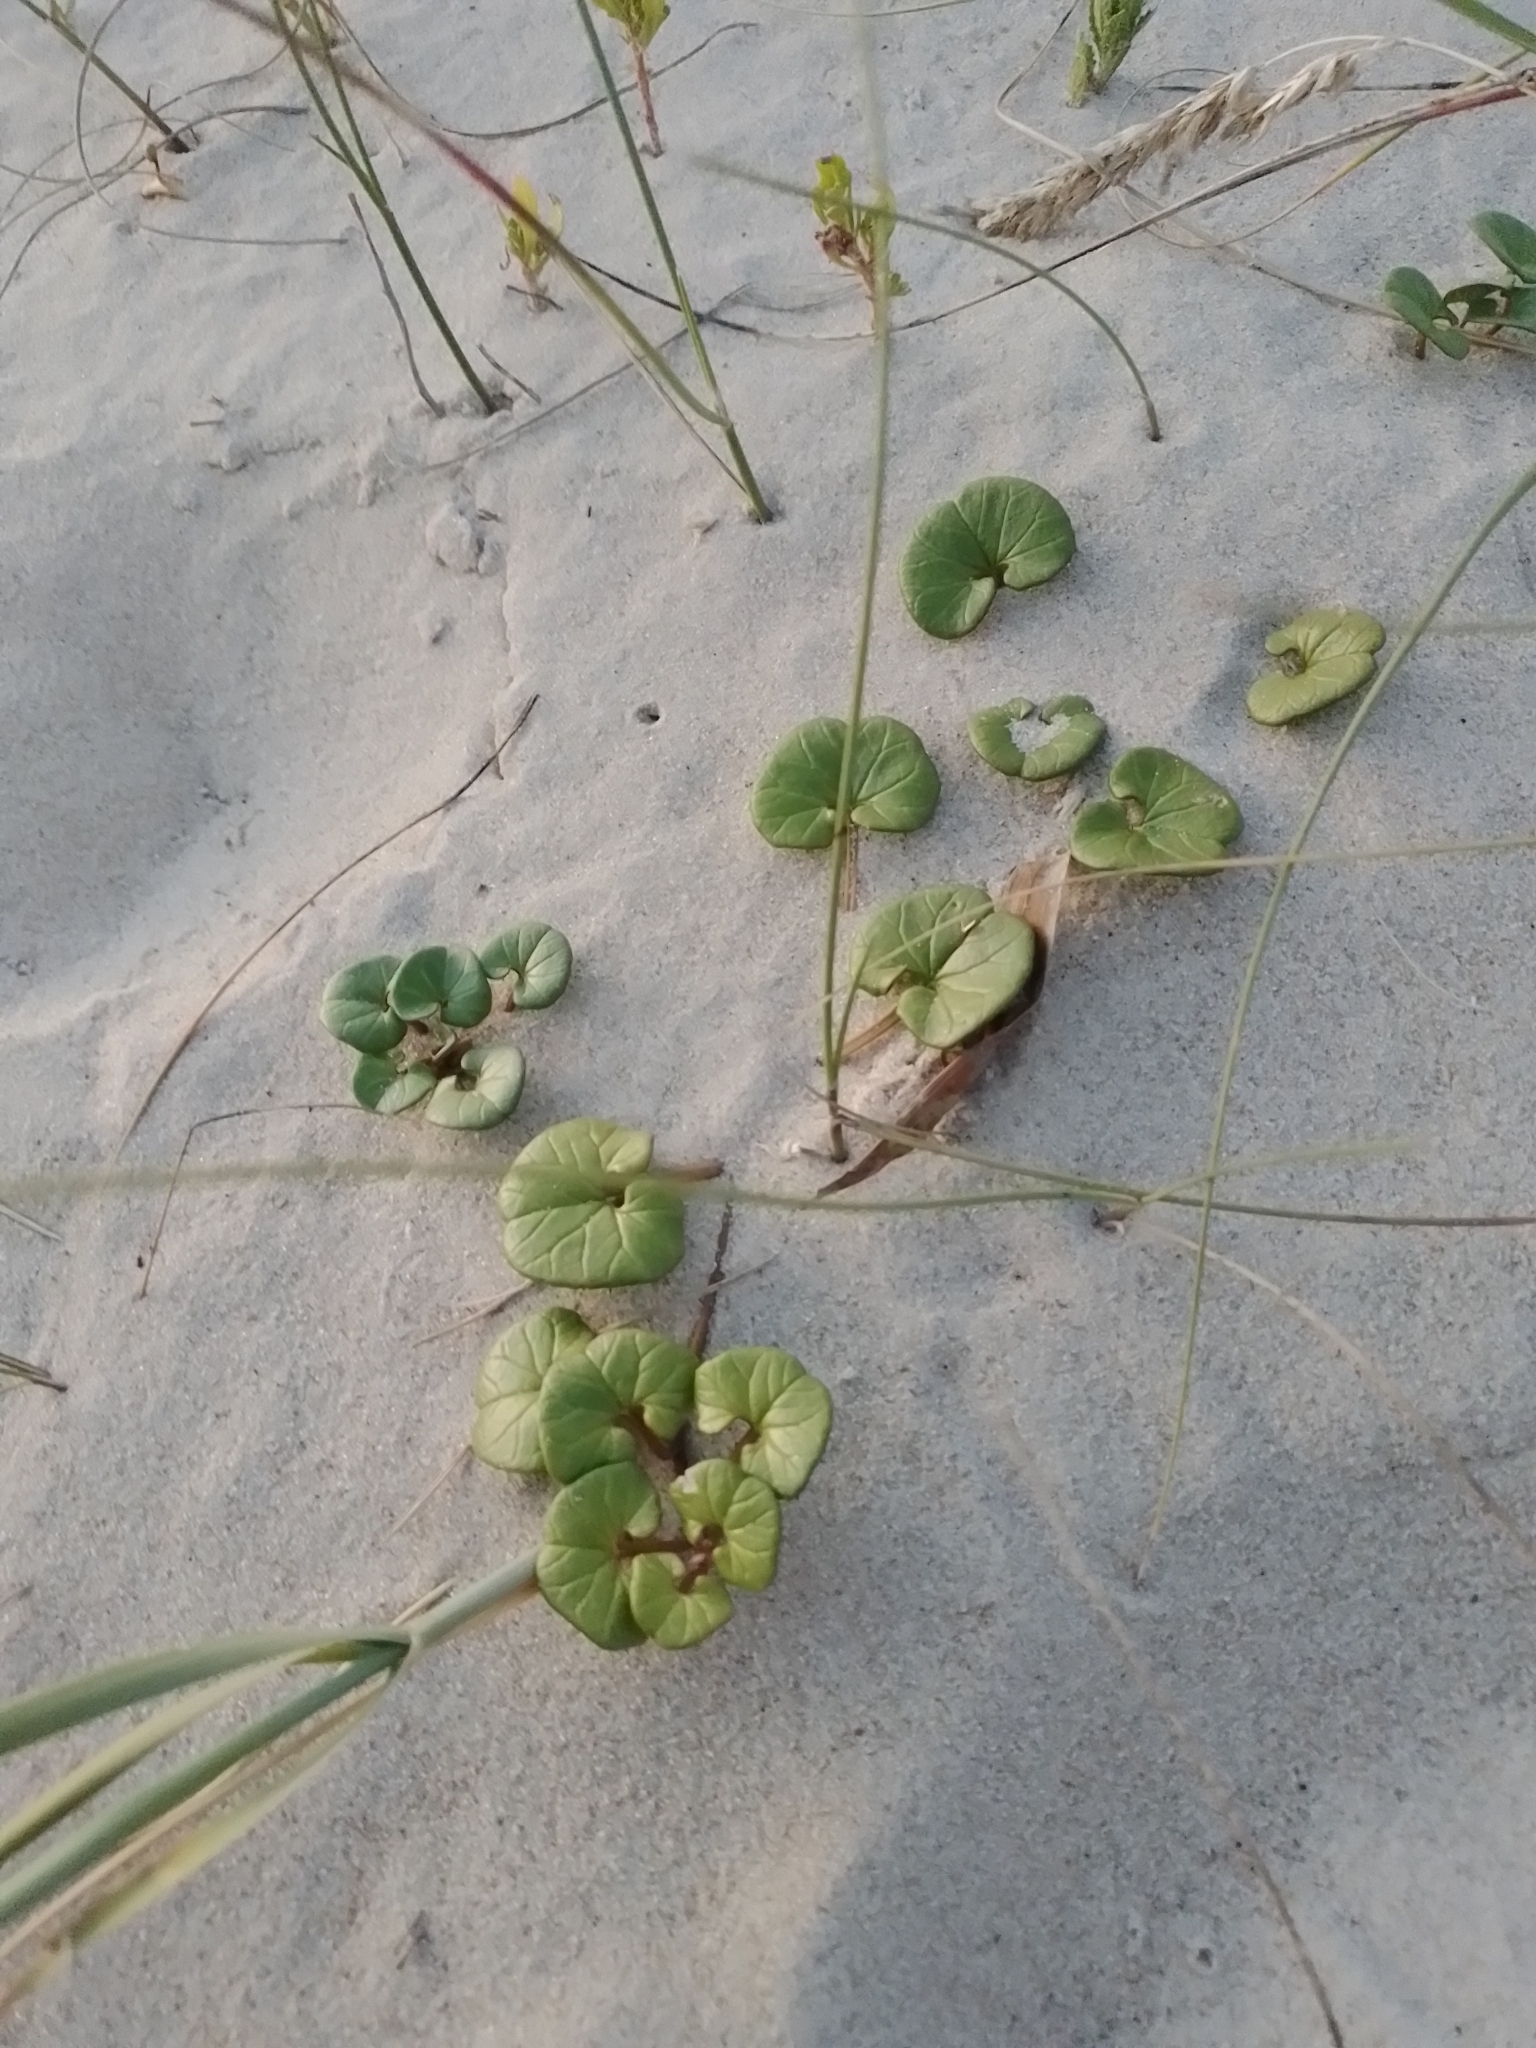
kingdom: Plantae
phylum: Tracheophyta
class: Magnoliopsida
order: Solanales
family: Convolvulaceae
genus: Calystegia
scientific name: Calystegia soldanella
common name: Sea bindweed
